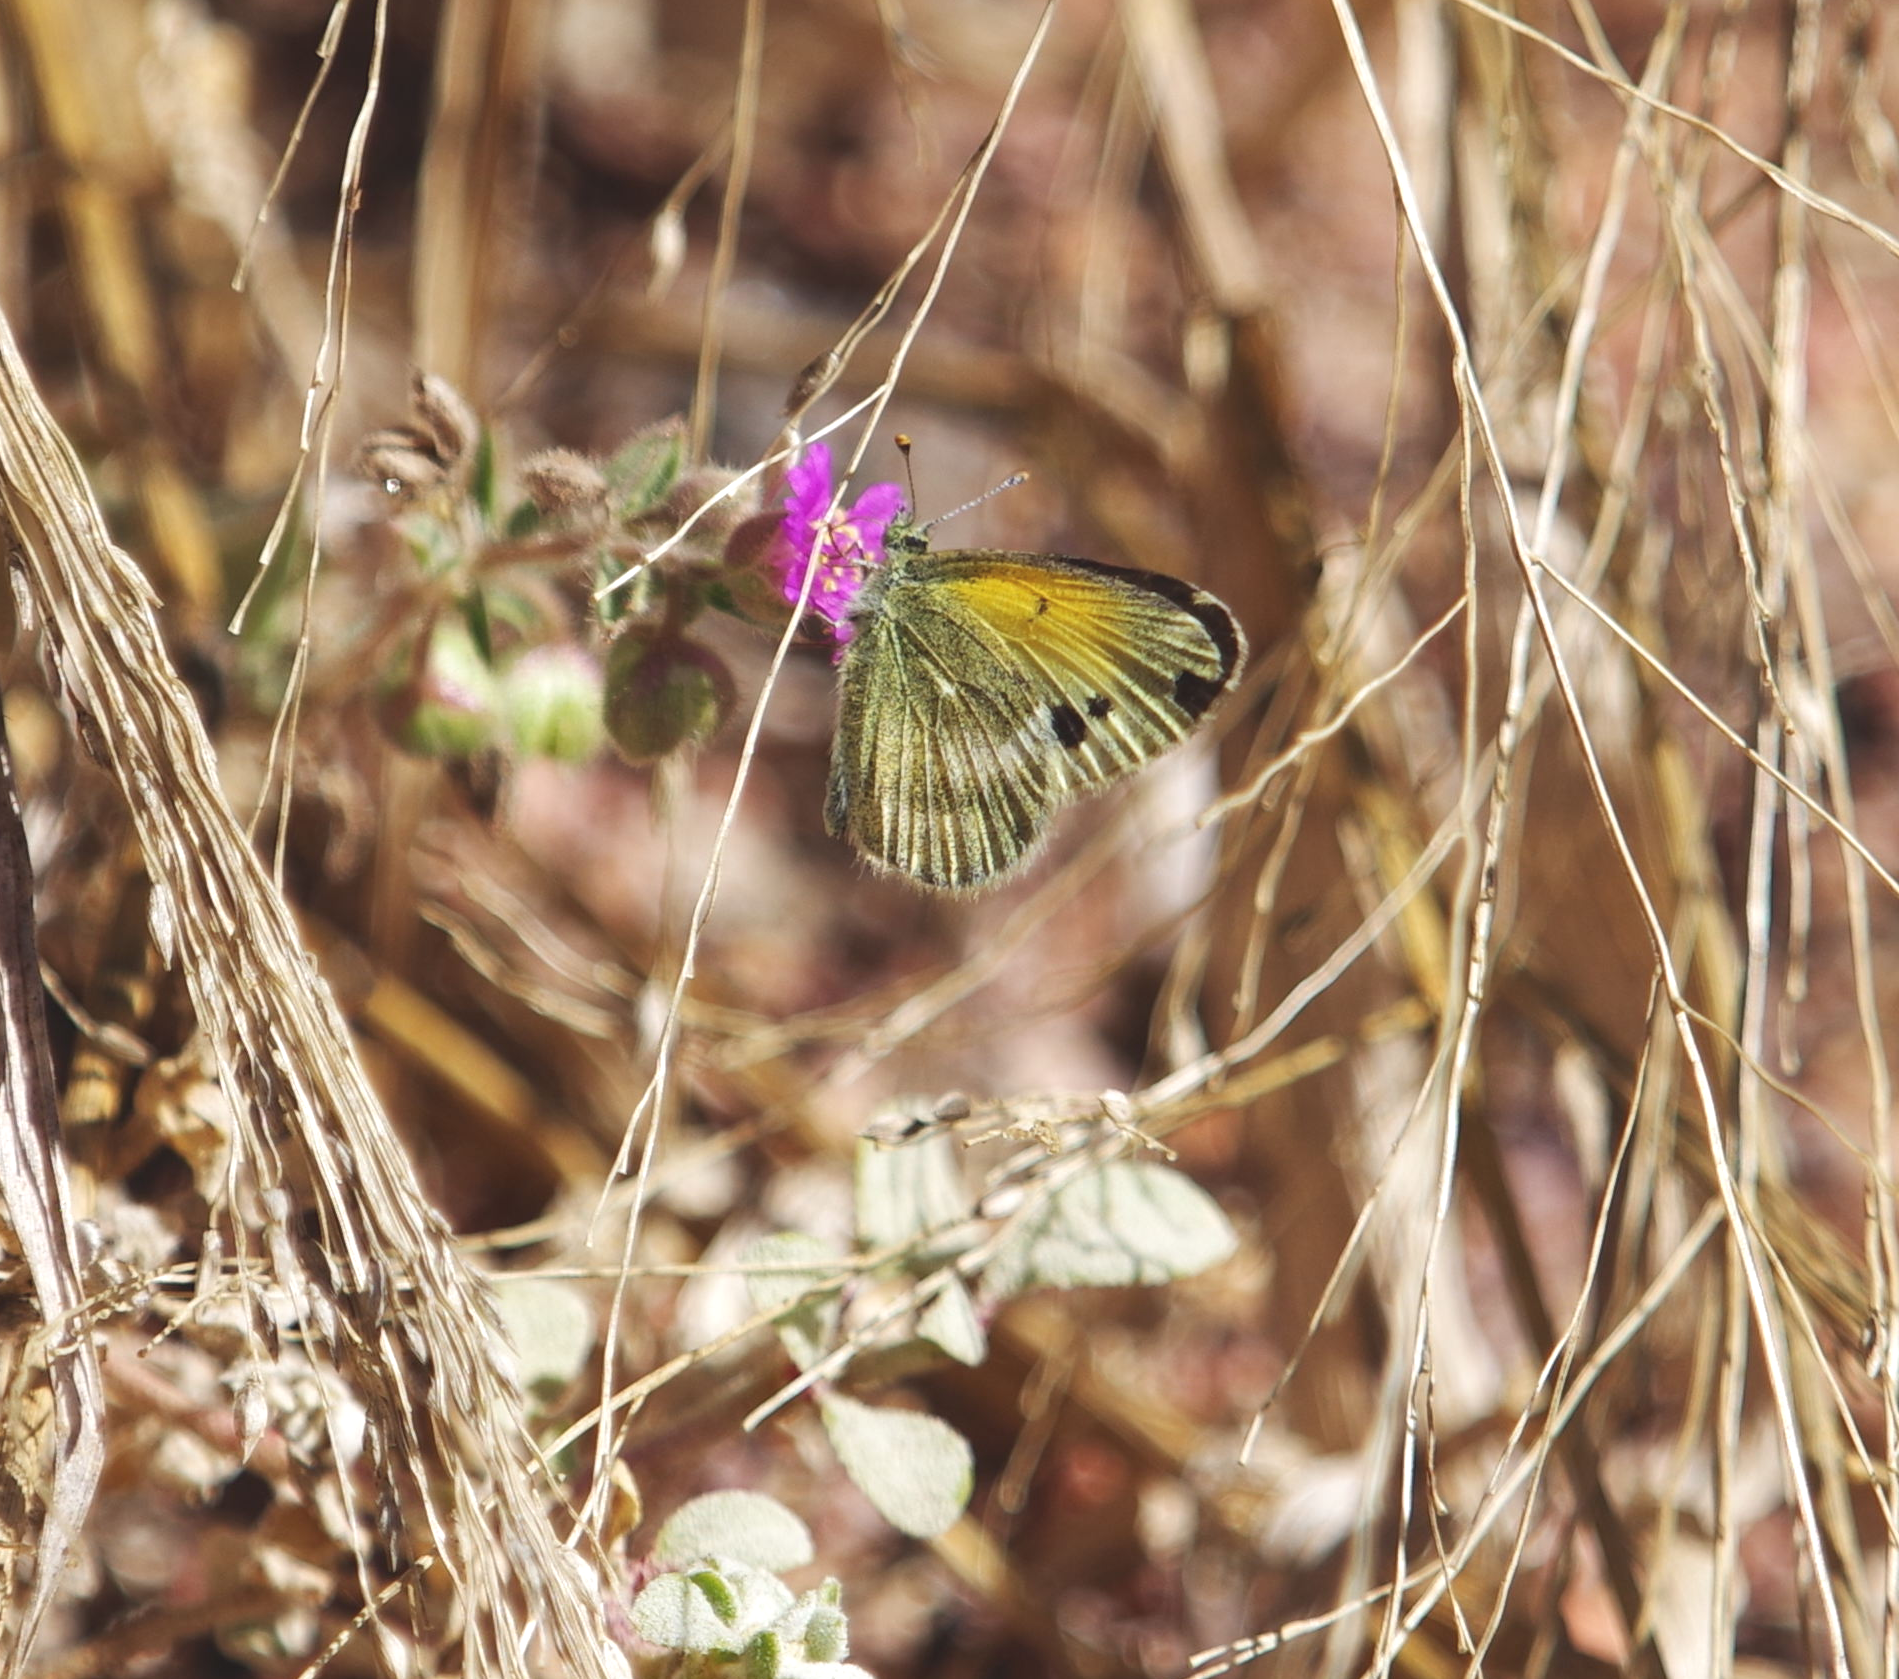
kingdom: Animalia
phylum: Arthropoda
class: Insecta
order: Lepidoptera
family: Pieridae
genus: Nathalis
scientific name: Nathalis iole
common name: Dainty sulphur
